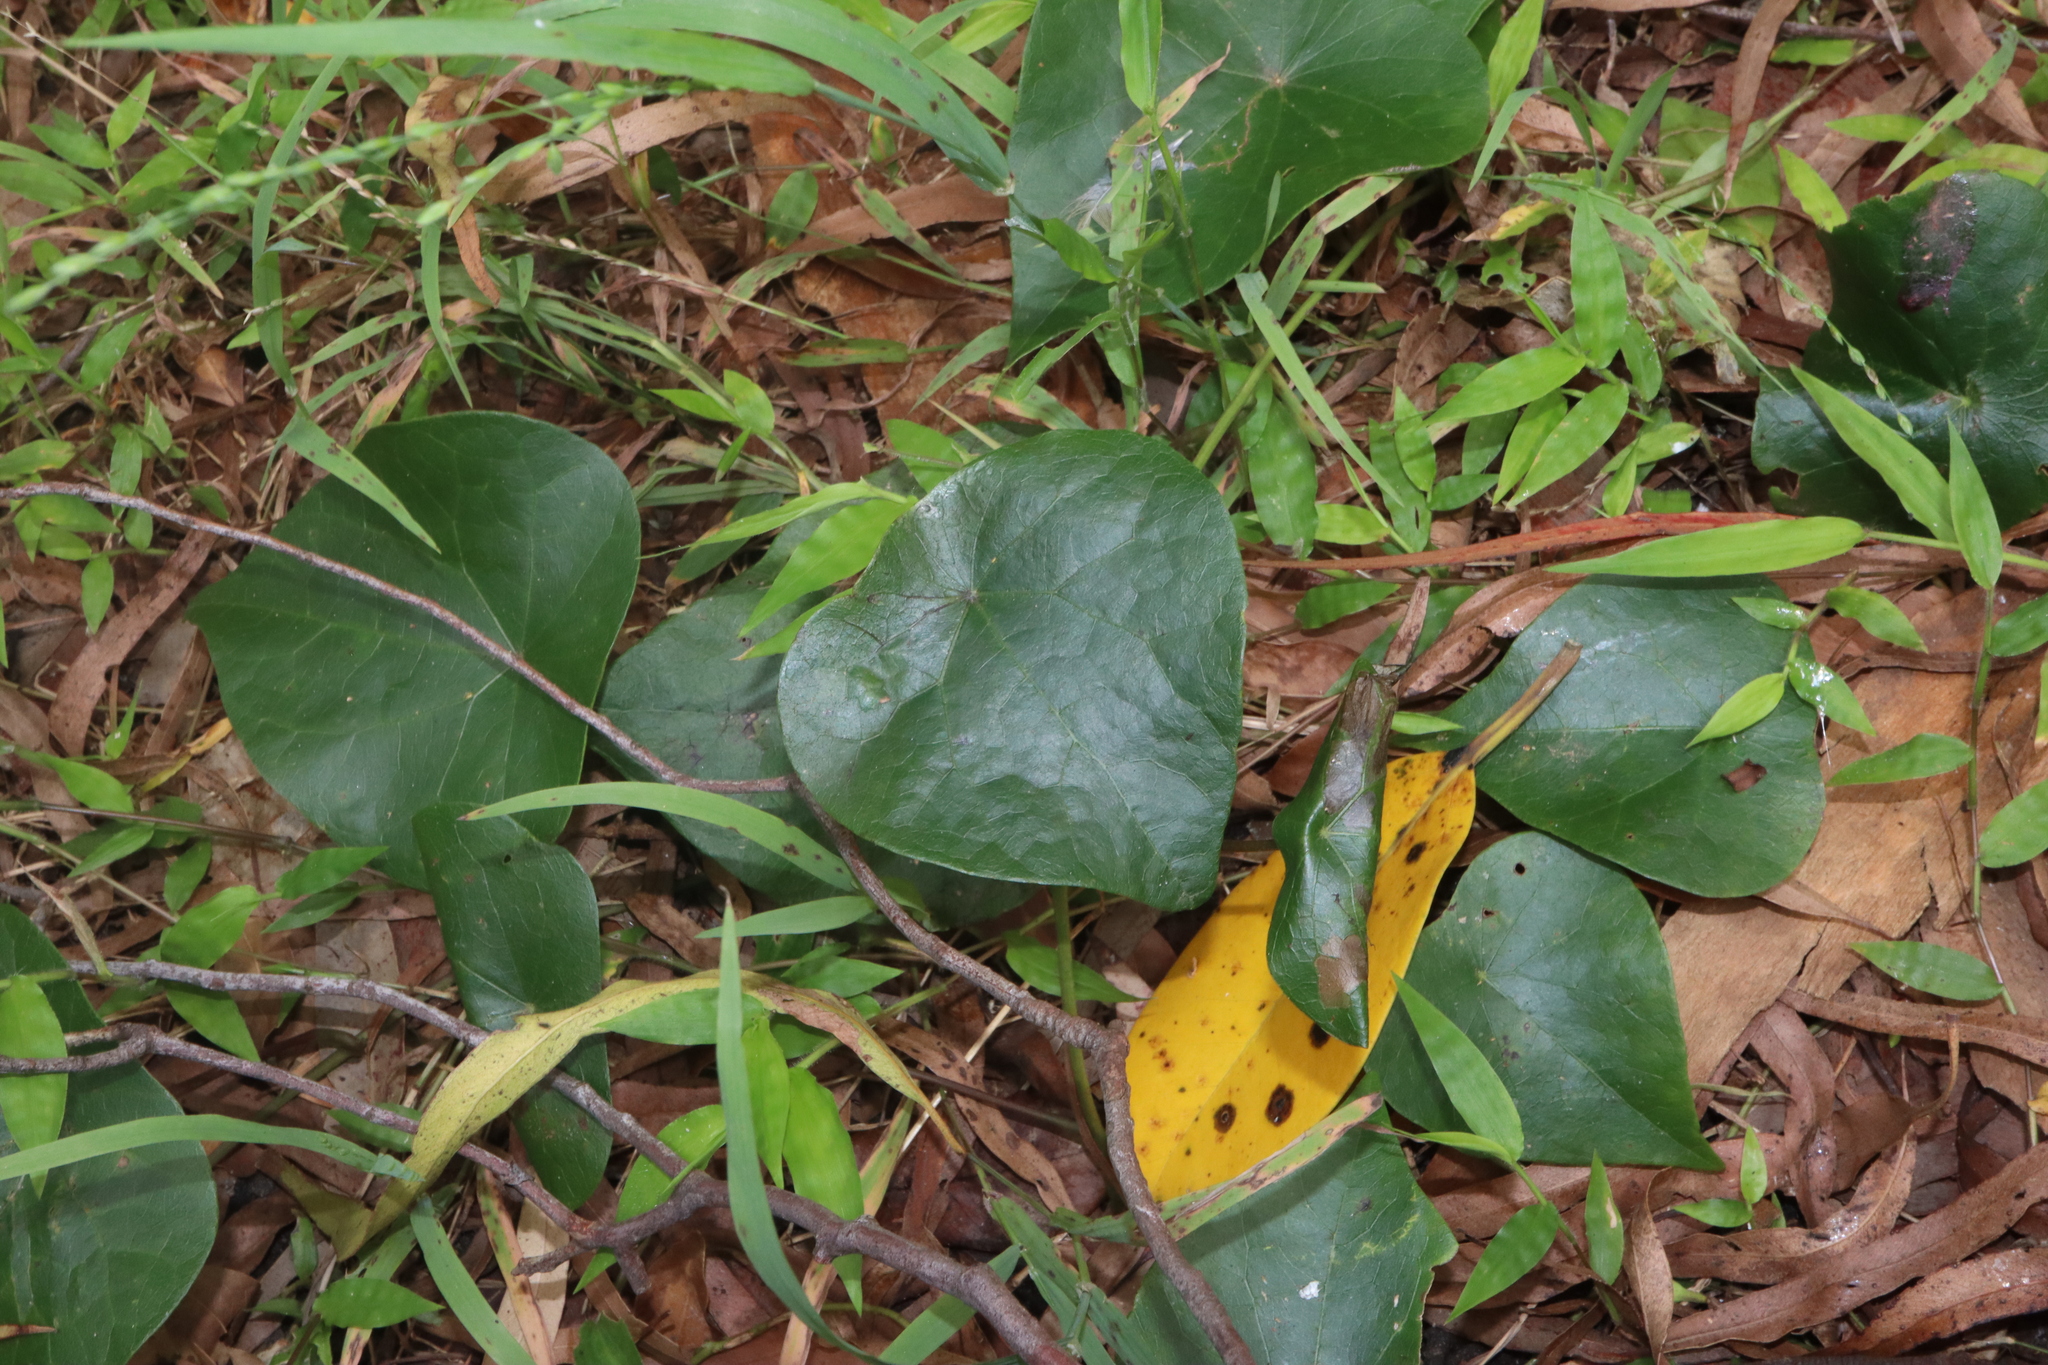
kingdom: Plantae
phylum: Tracheophyta
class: Magnoliopsida
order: Ranunculales
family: Menispermaceae
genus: Stephania
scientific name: Stephania japonica
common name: Snake vine
